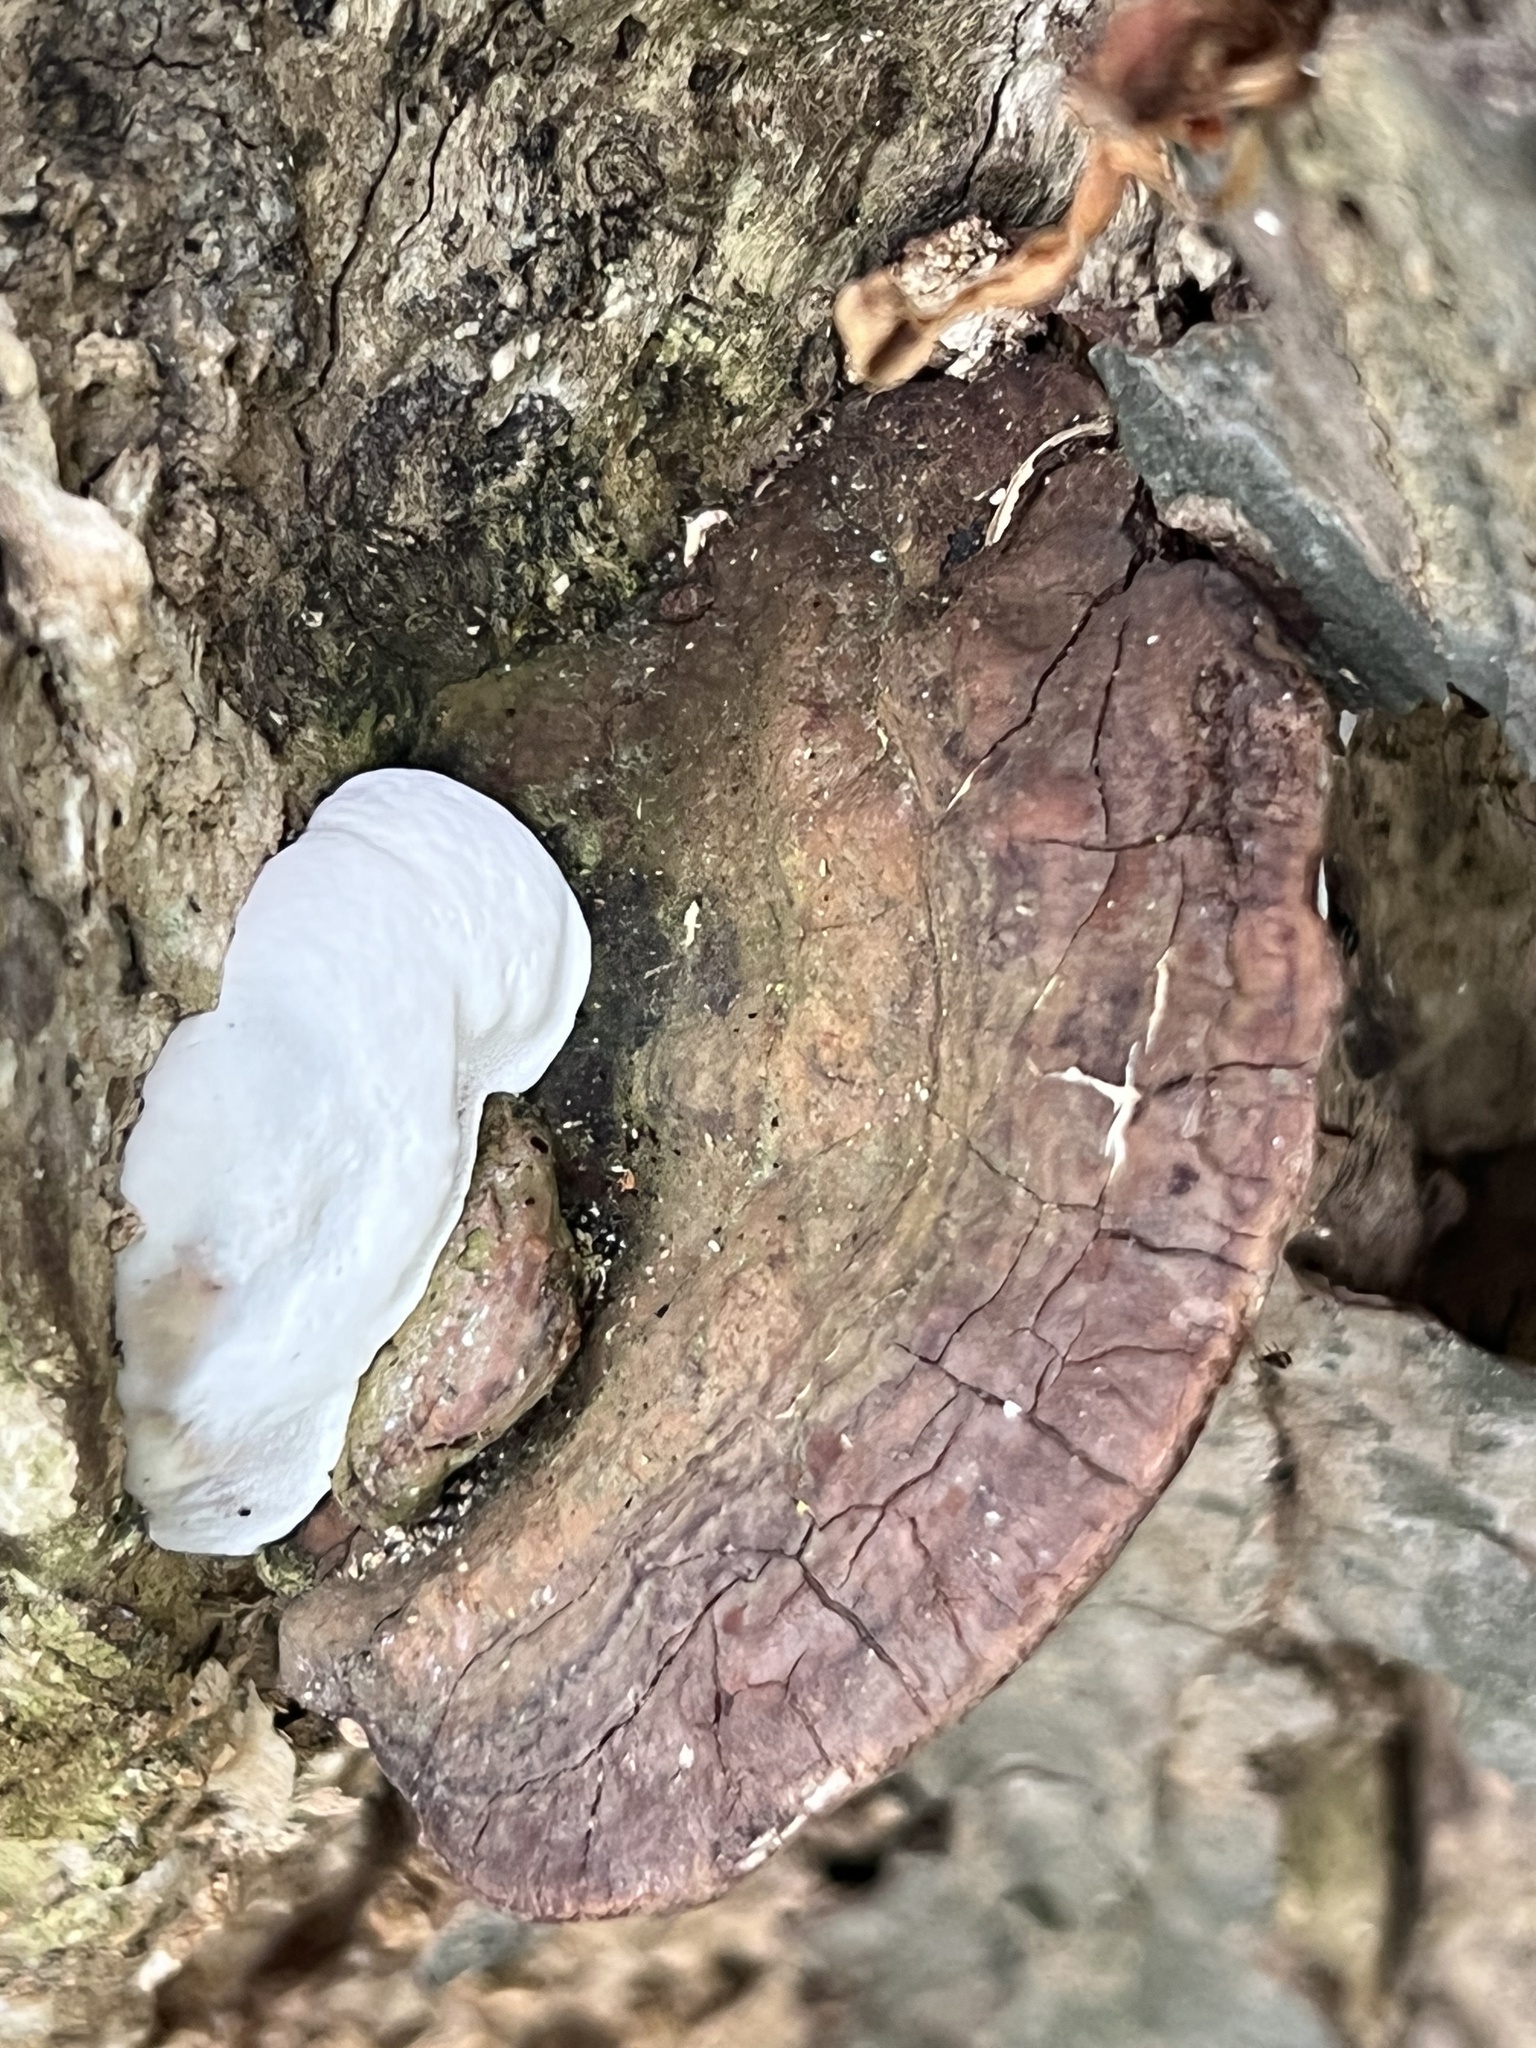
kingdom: Fungi
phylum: Basidiomycota
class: Agaricomycetes
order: Polyporales
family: Polyporaceae
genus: Ganoderma
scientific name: Ganoderma applanatum
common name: Artist's bracket
